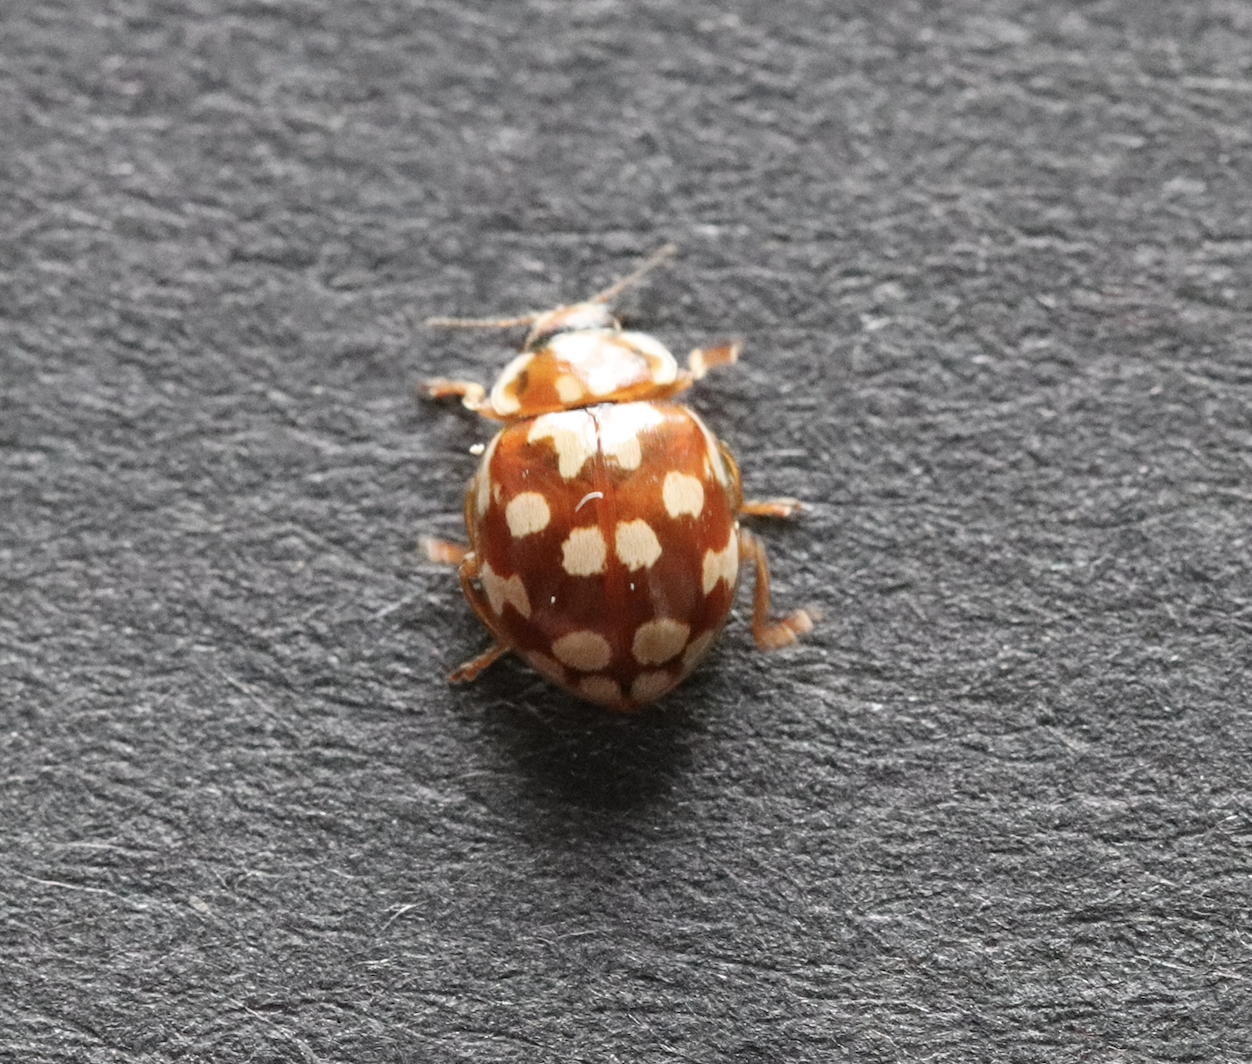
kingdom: Animalia
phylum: Arthropoda
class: Insecta
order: Coleoptera
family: Coccinellidae
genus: Myrrha
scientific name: Myrrha octodecimguttata
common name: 18-spot ladybird
